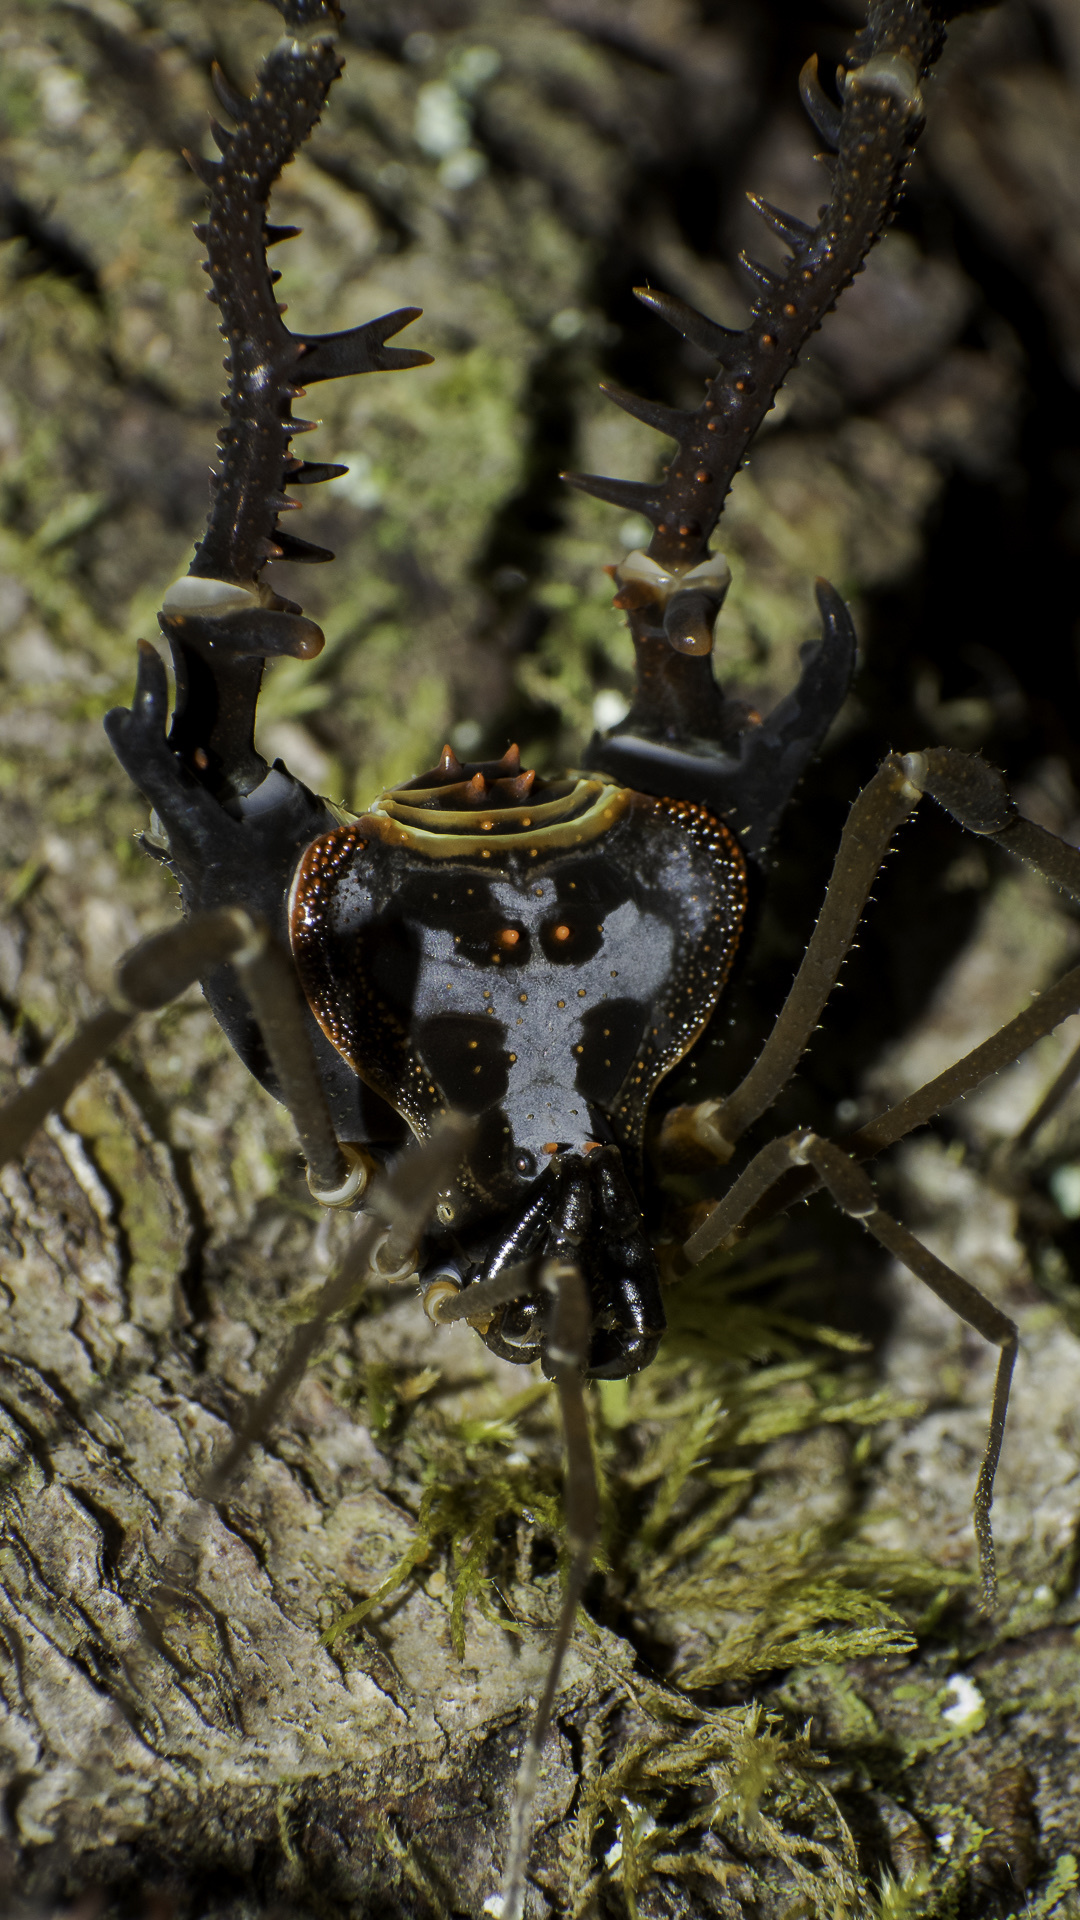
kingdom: Animalia
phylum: Arthropoda
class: Arachnida
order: Opiliones
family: Gonyleptidae
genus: Sadocus
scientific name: Sadocus asperatus
